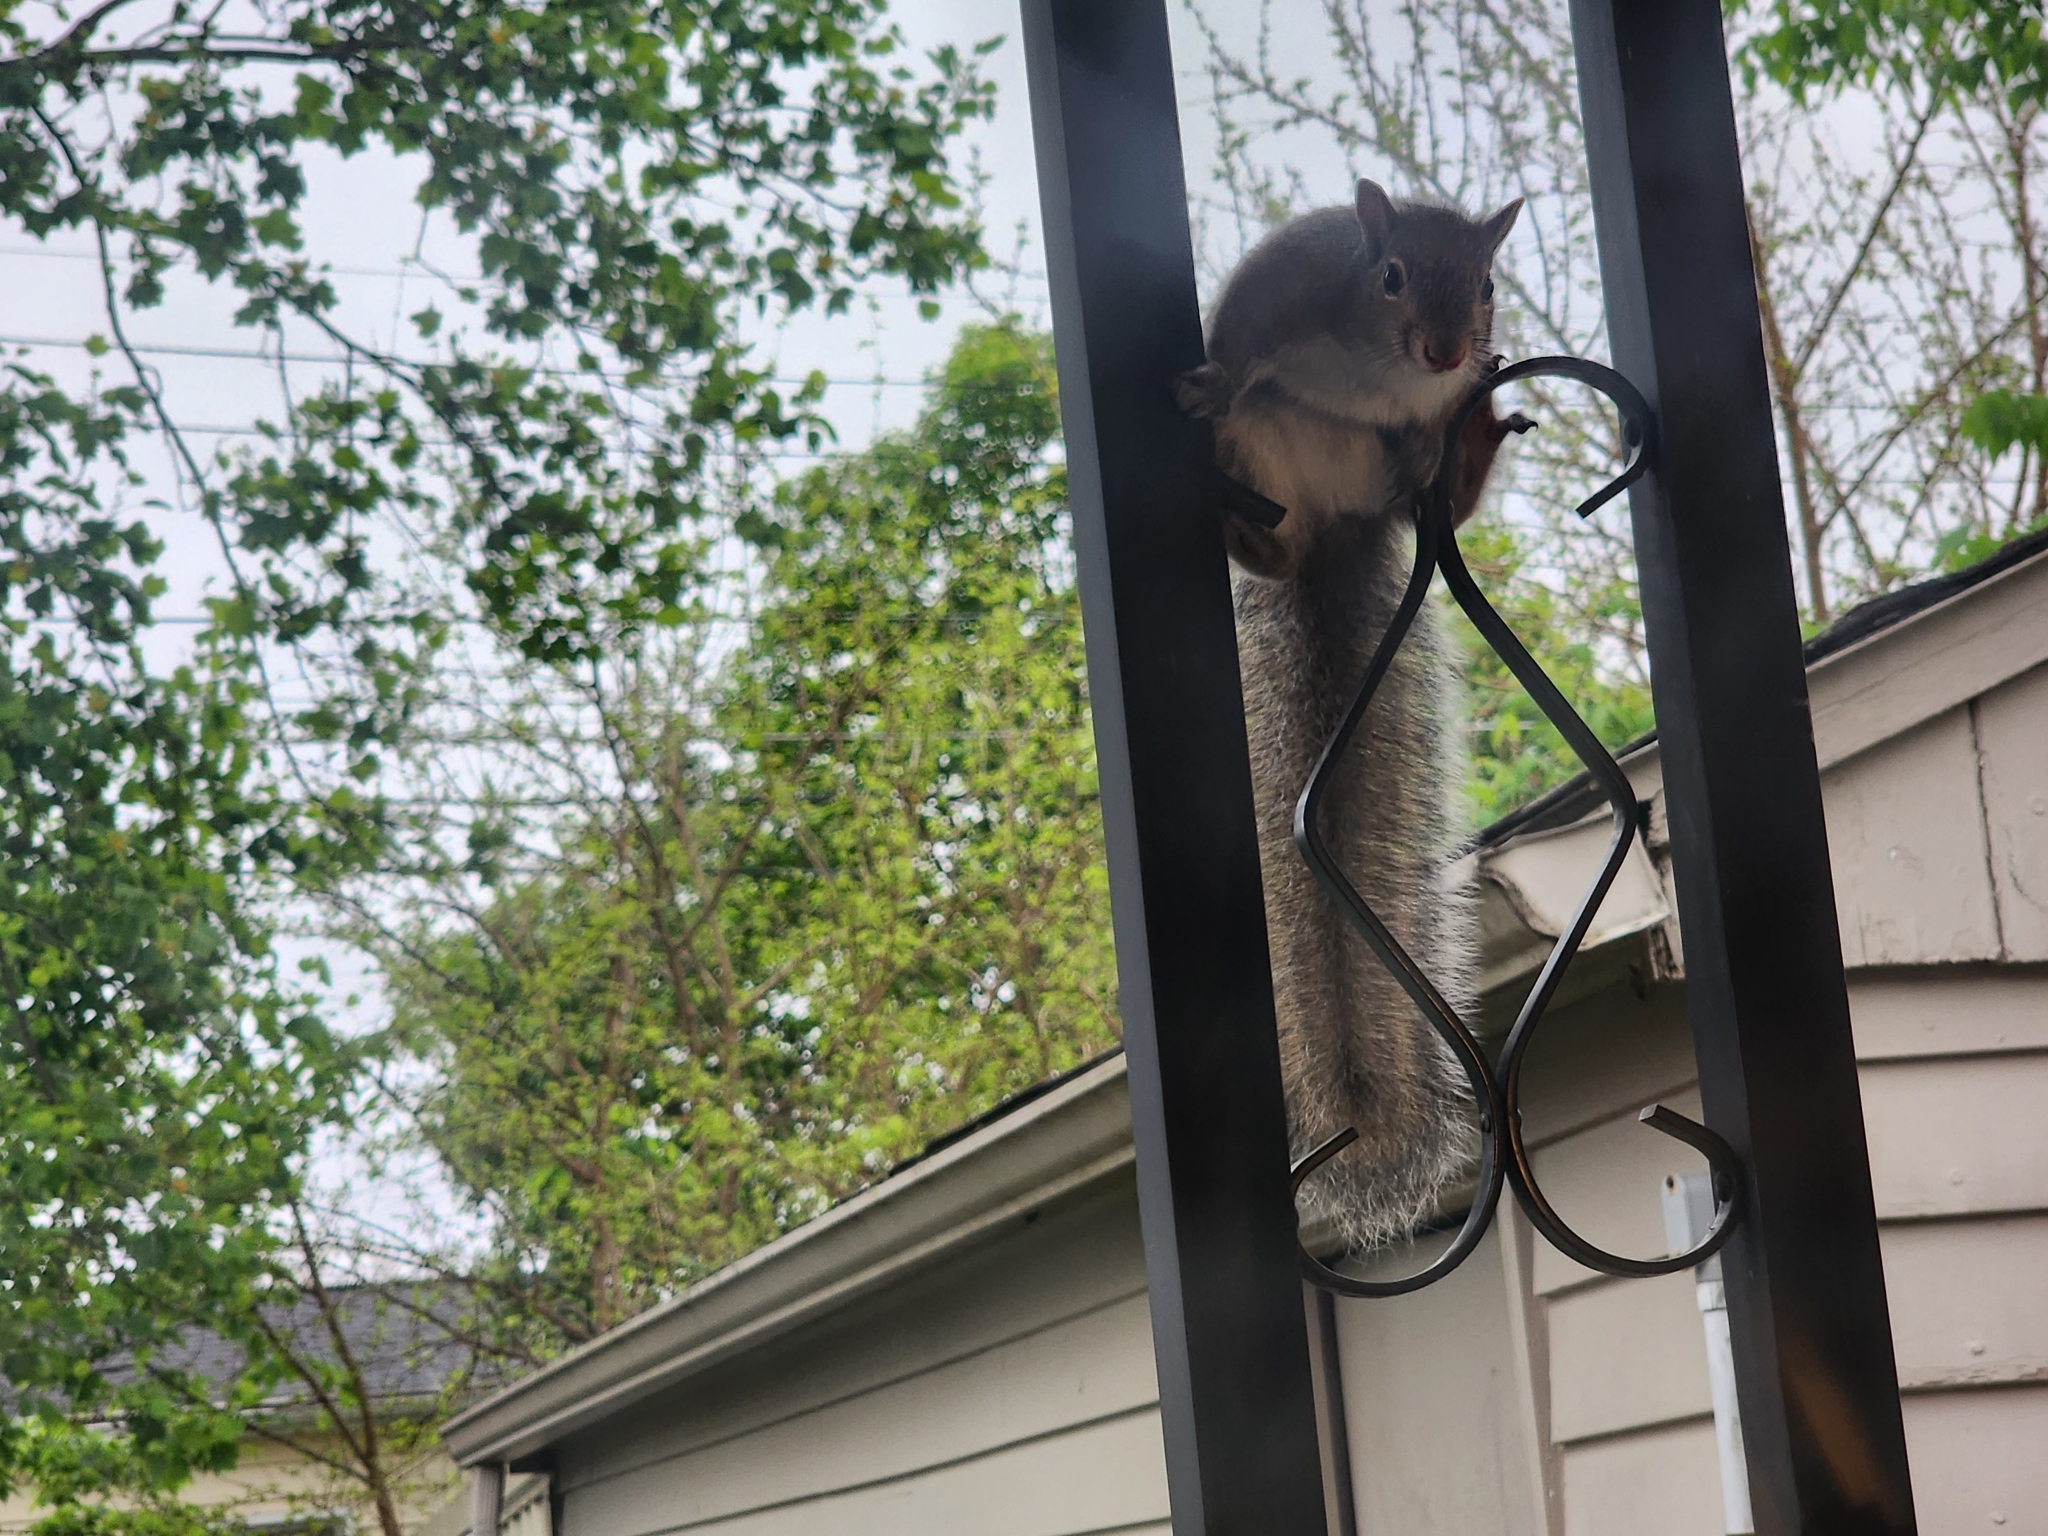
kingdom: Animalia
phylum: Chordata
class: Mammalia
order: Rodentia
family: Sciuridae
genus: Sciurus
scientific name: Sciurus carolinensis
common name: Eastern gray squirrel
